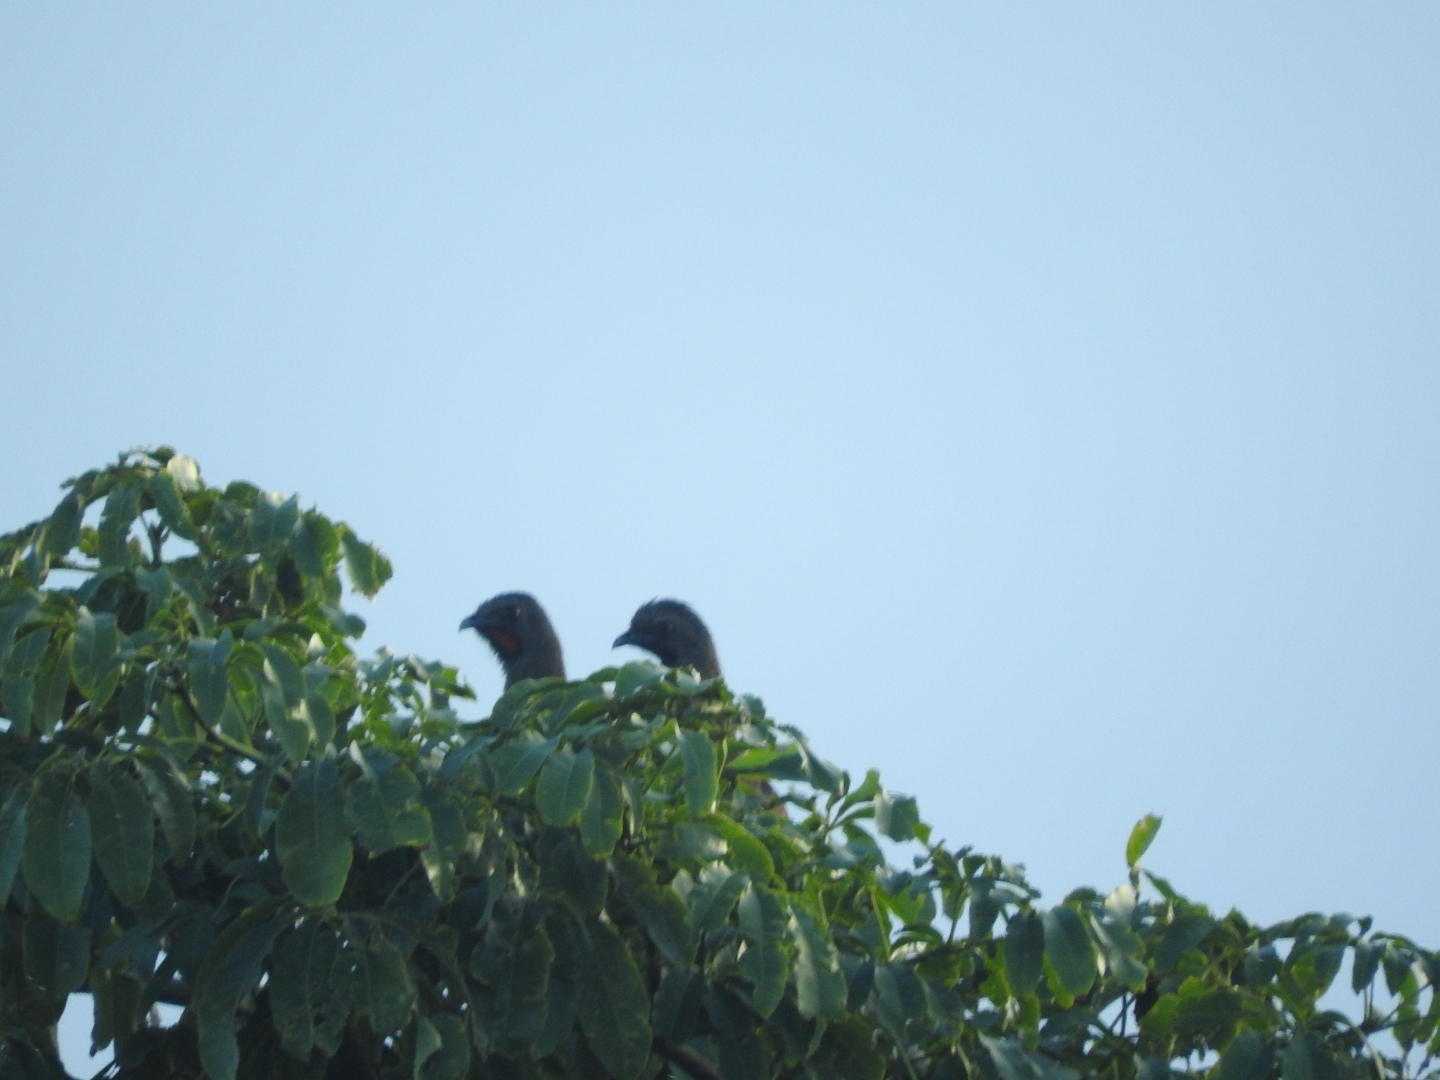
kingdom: Animalia
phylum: Chordata
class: Aves
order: Galliformes
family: Cracidae
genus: Ortalis
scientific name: Ortalis vetula
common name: Plain chachalaca
